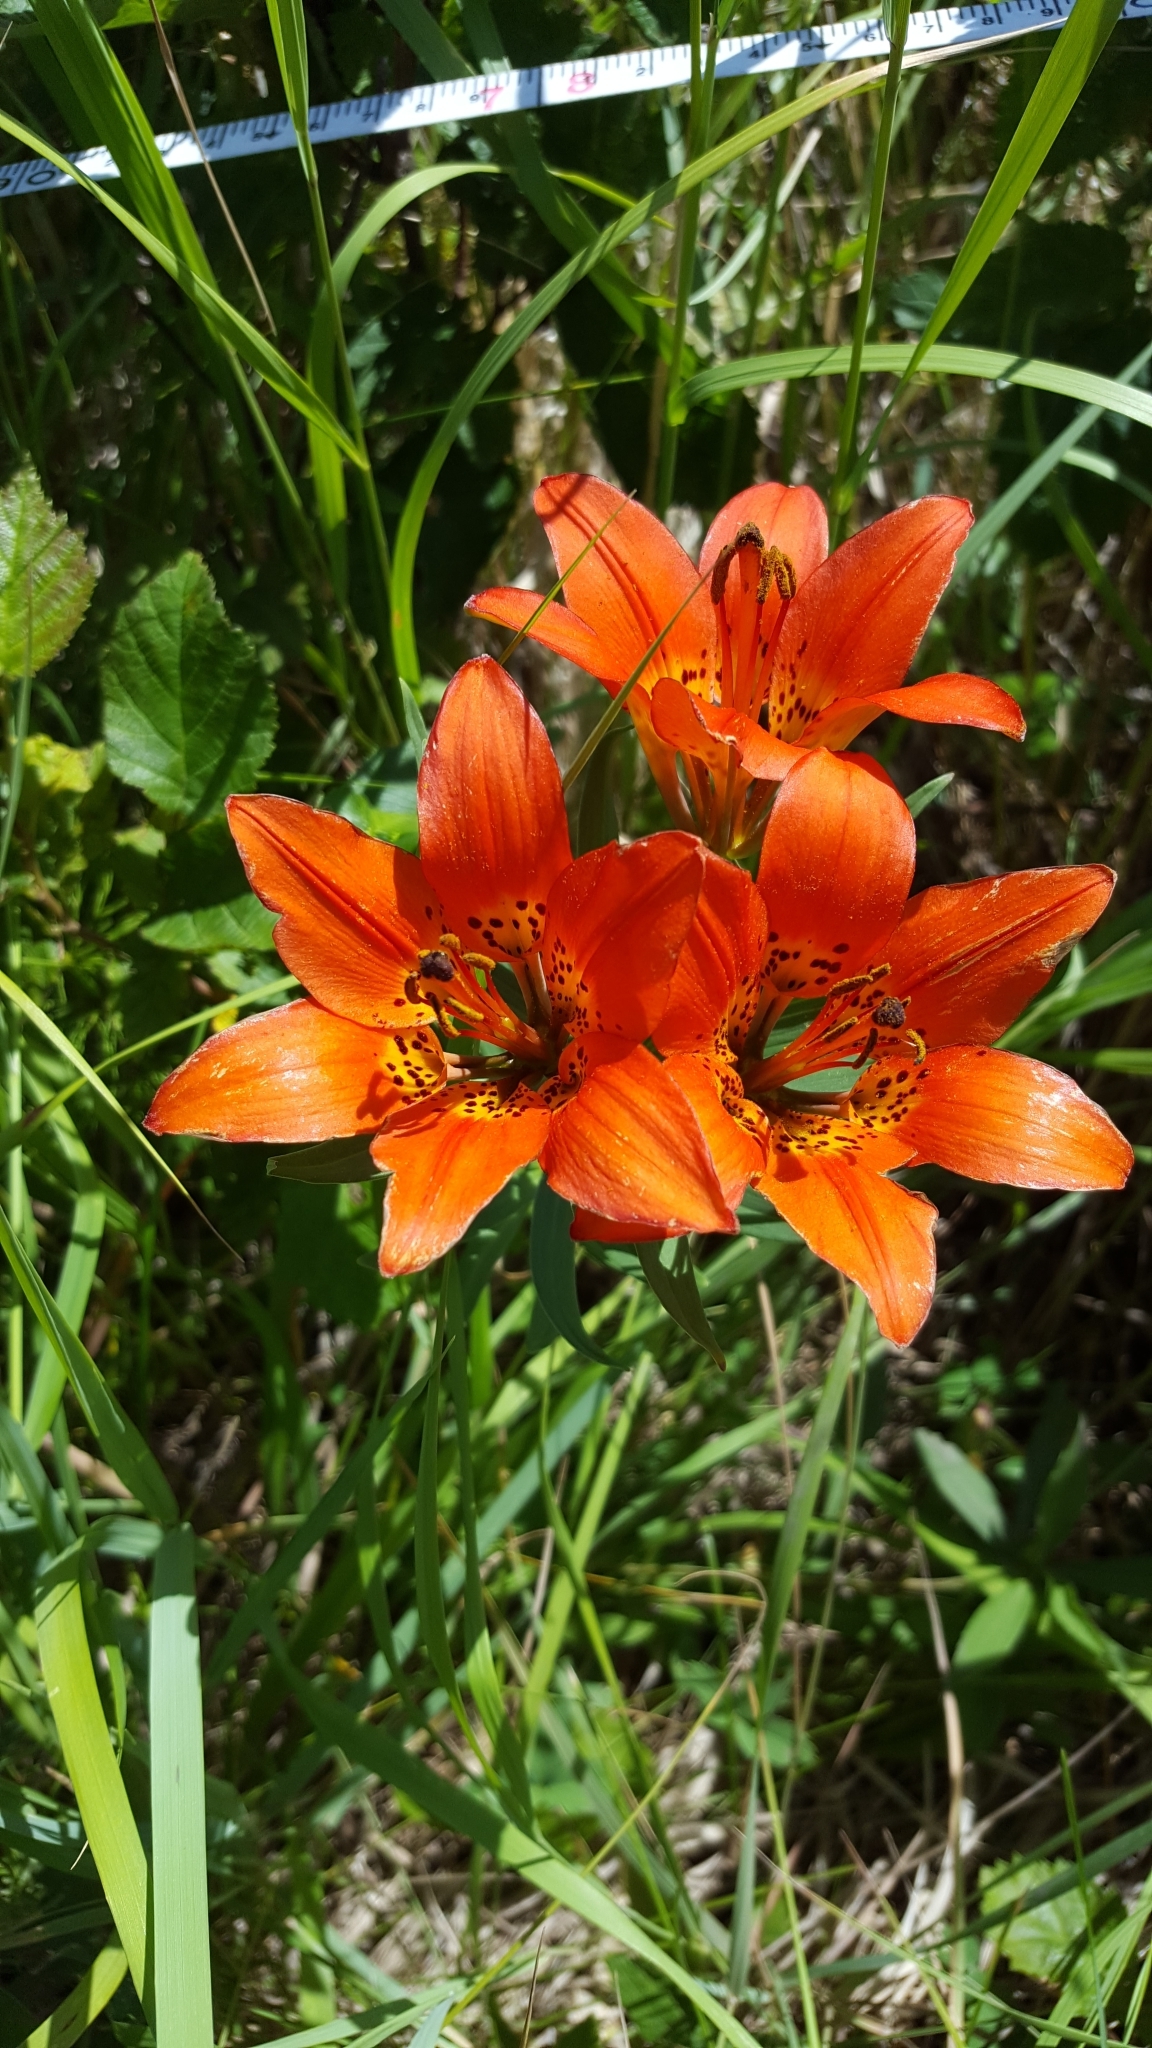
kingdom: Plantae
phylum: Tracheophyta
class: Liliopsida
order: Liliales
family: Liliaceae
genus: Lilium
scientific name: Lilium philadelphicum
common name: Red lily
